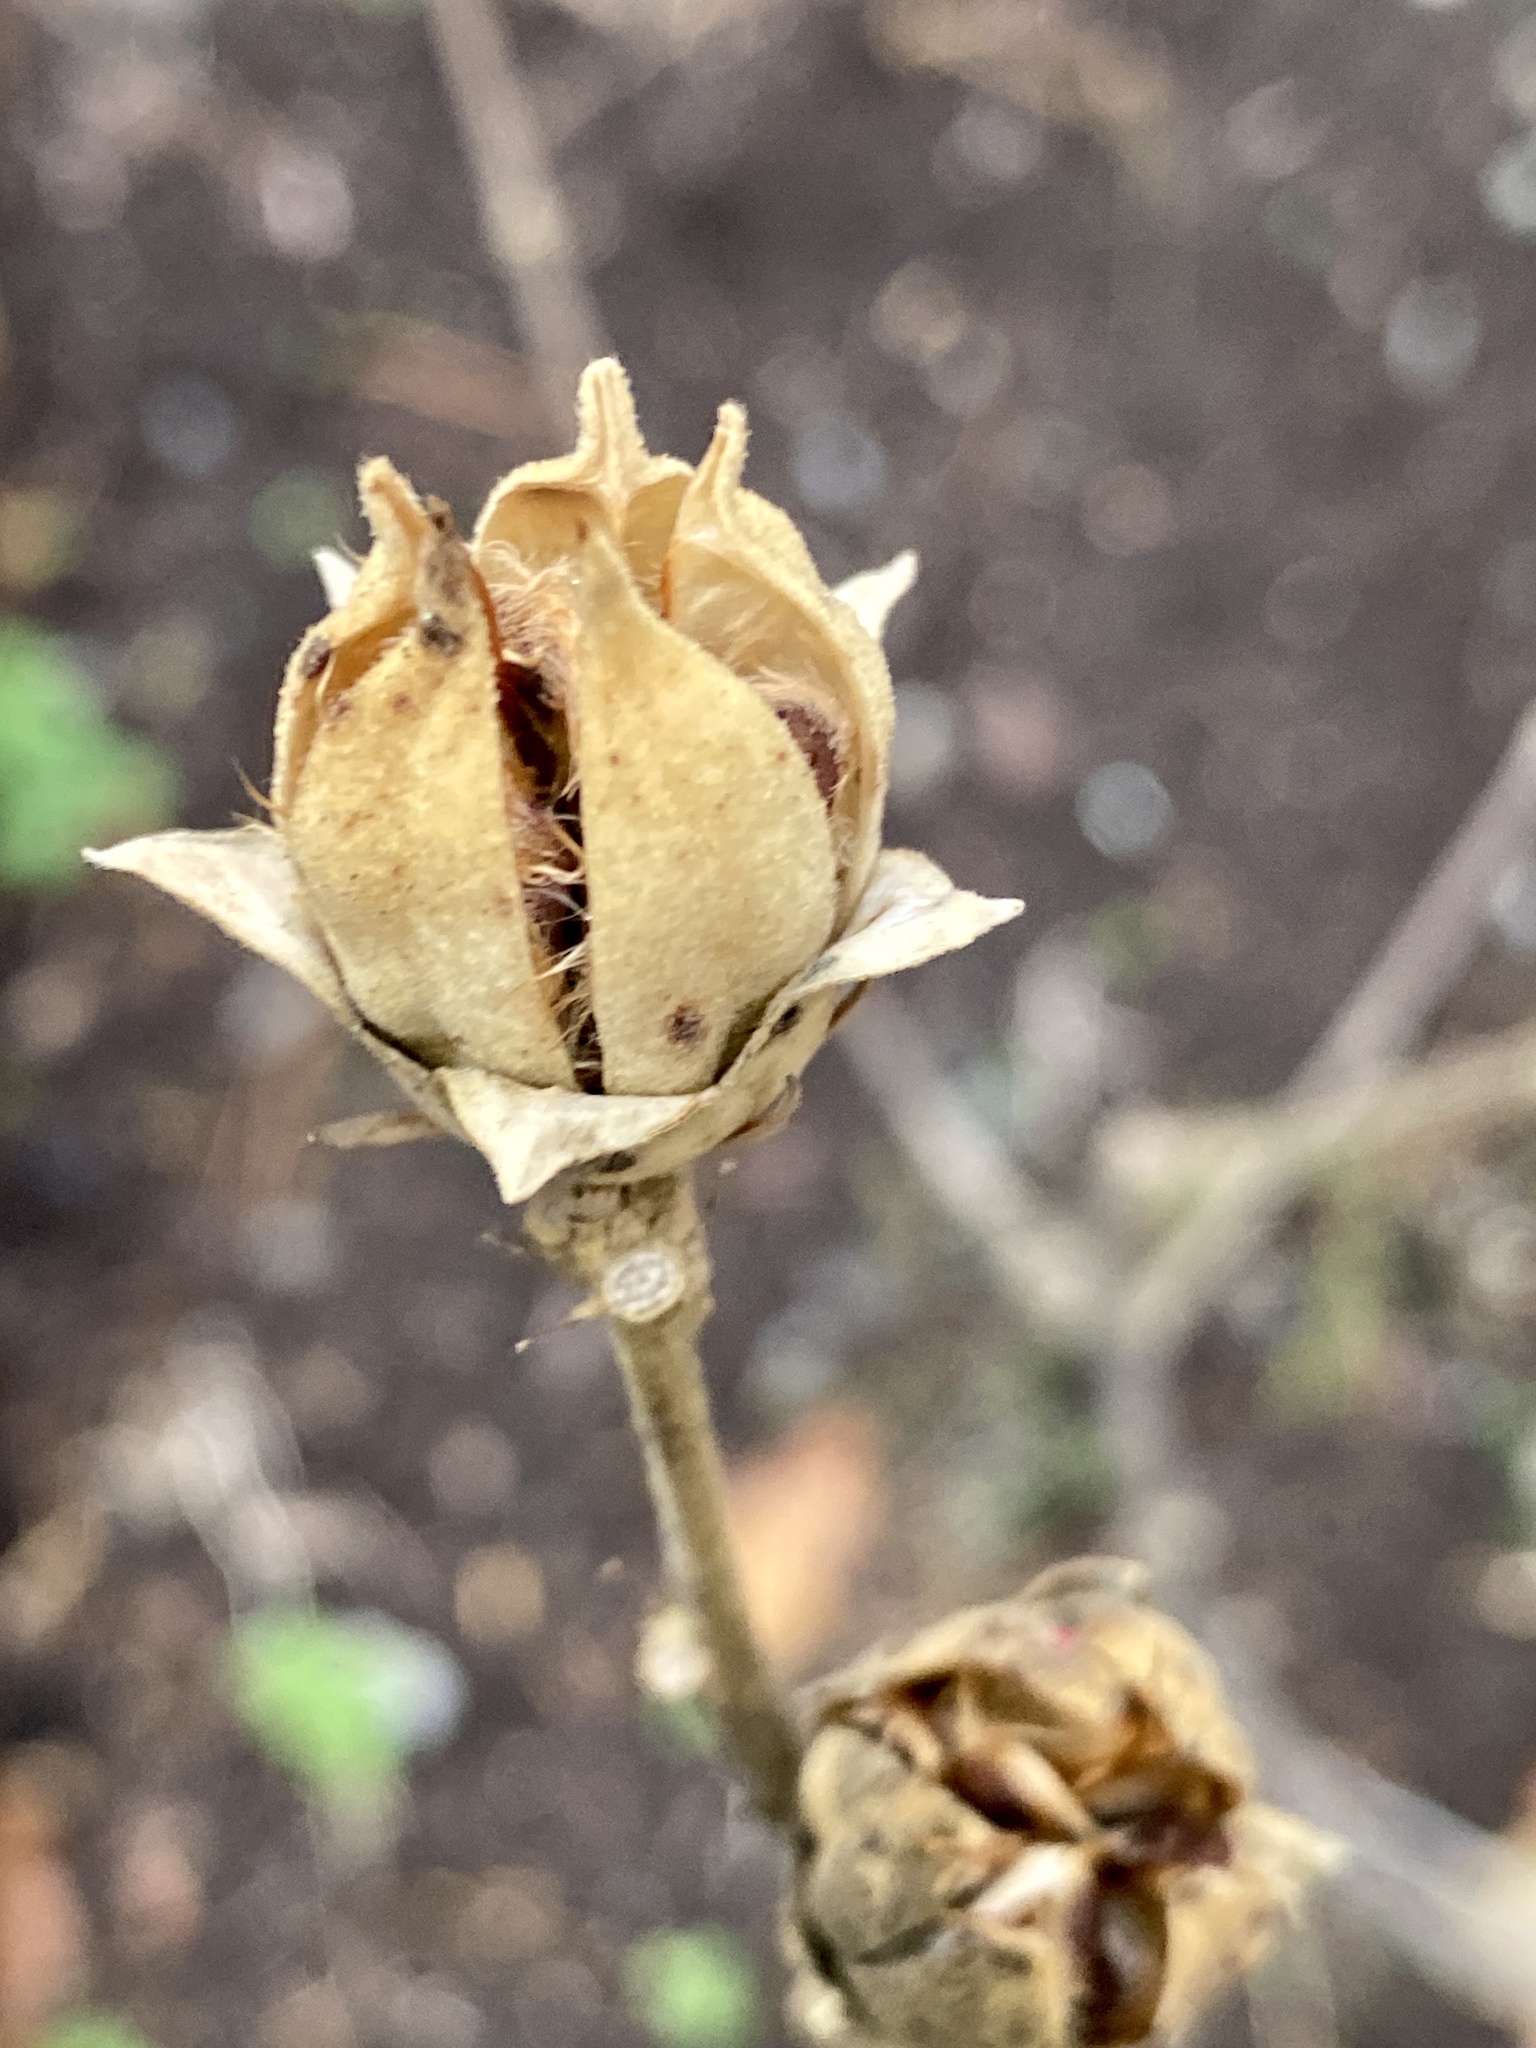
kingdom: Plantae
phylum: Tracheophyta
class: Magnoliopsida
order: Malvales
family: Malvaceae
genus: Hibiscus
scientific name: Hibiscus syriacus
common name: Syrian ketmia
